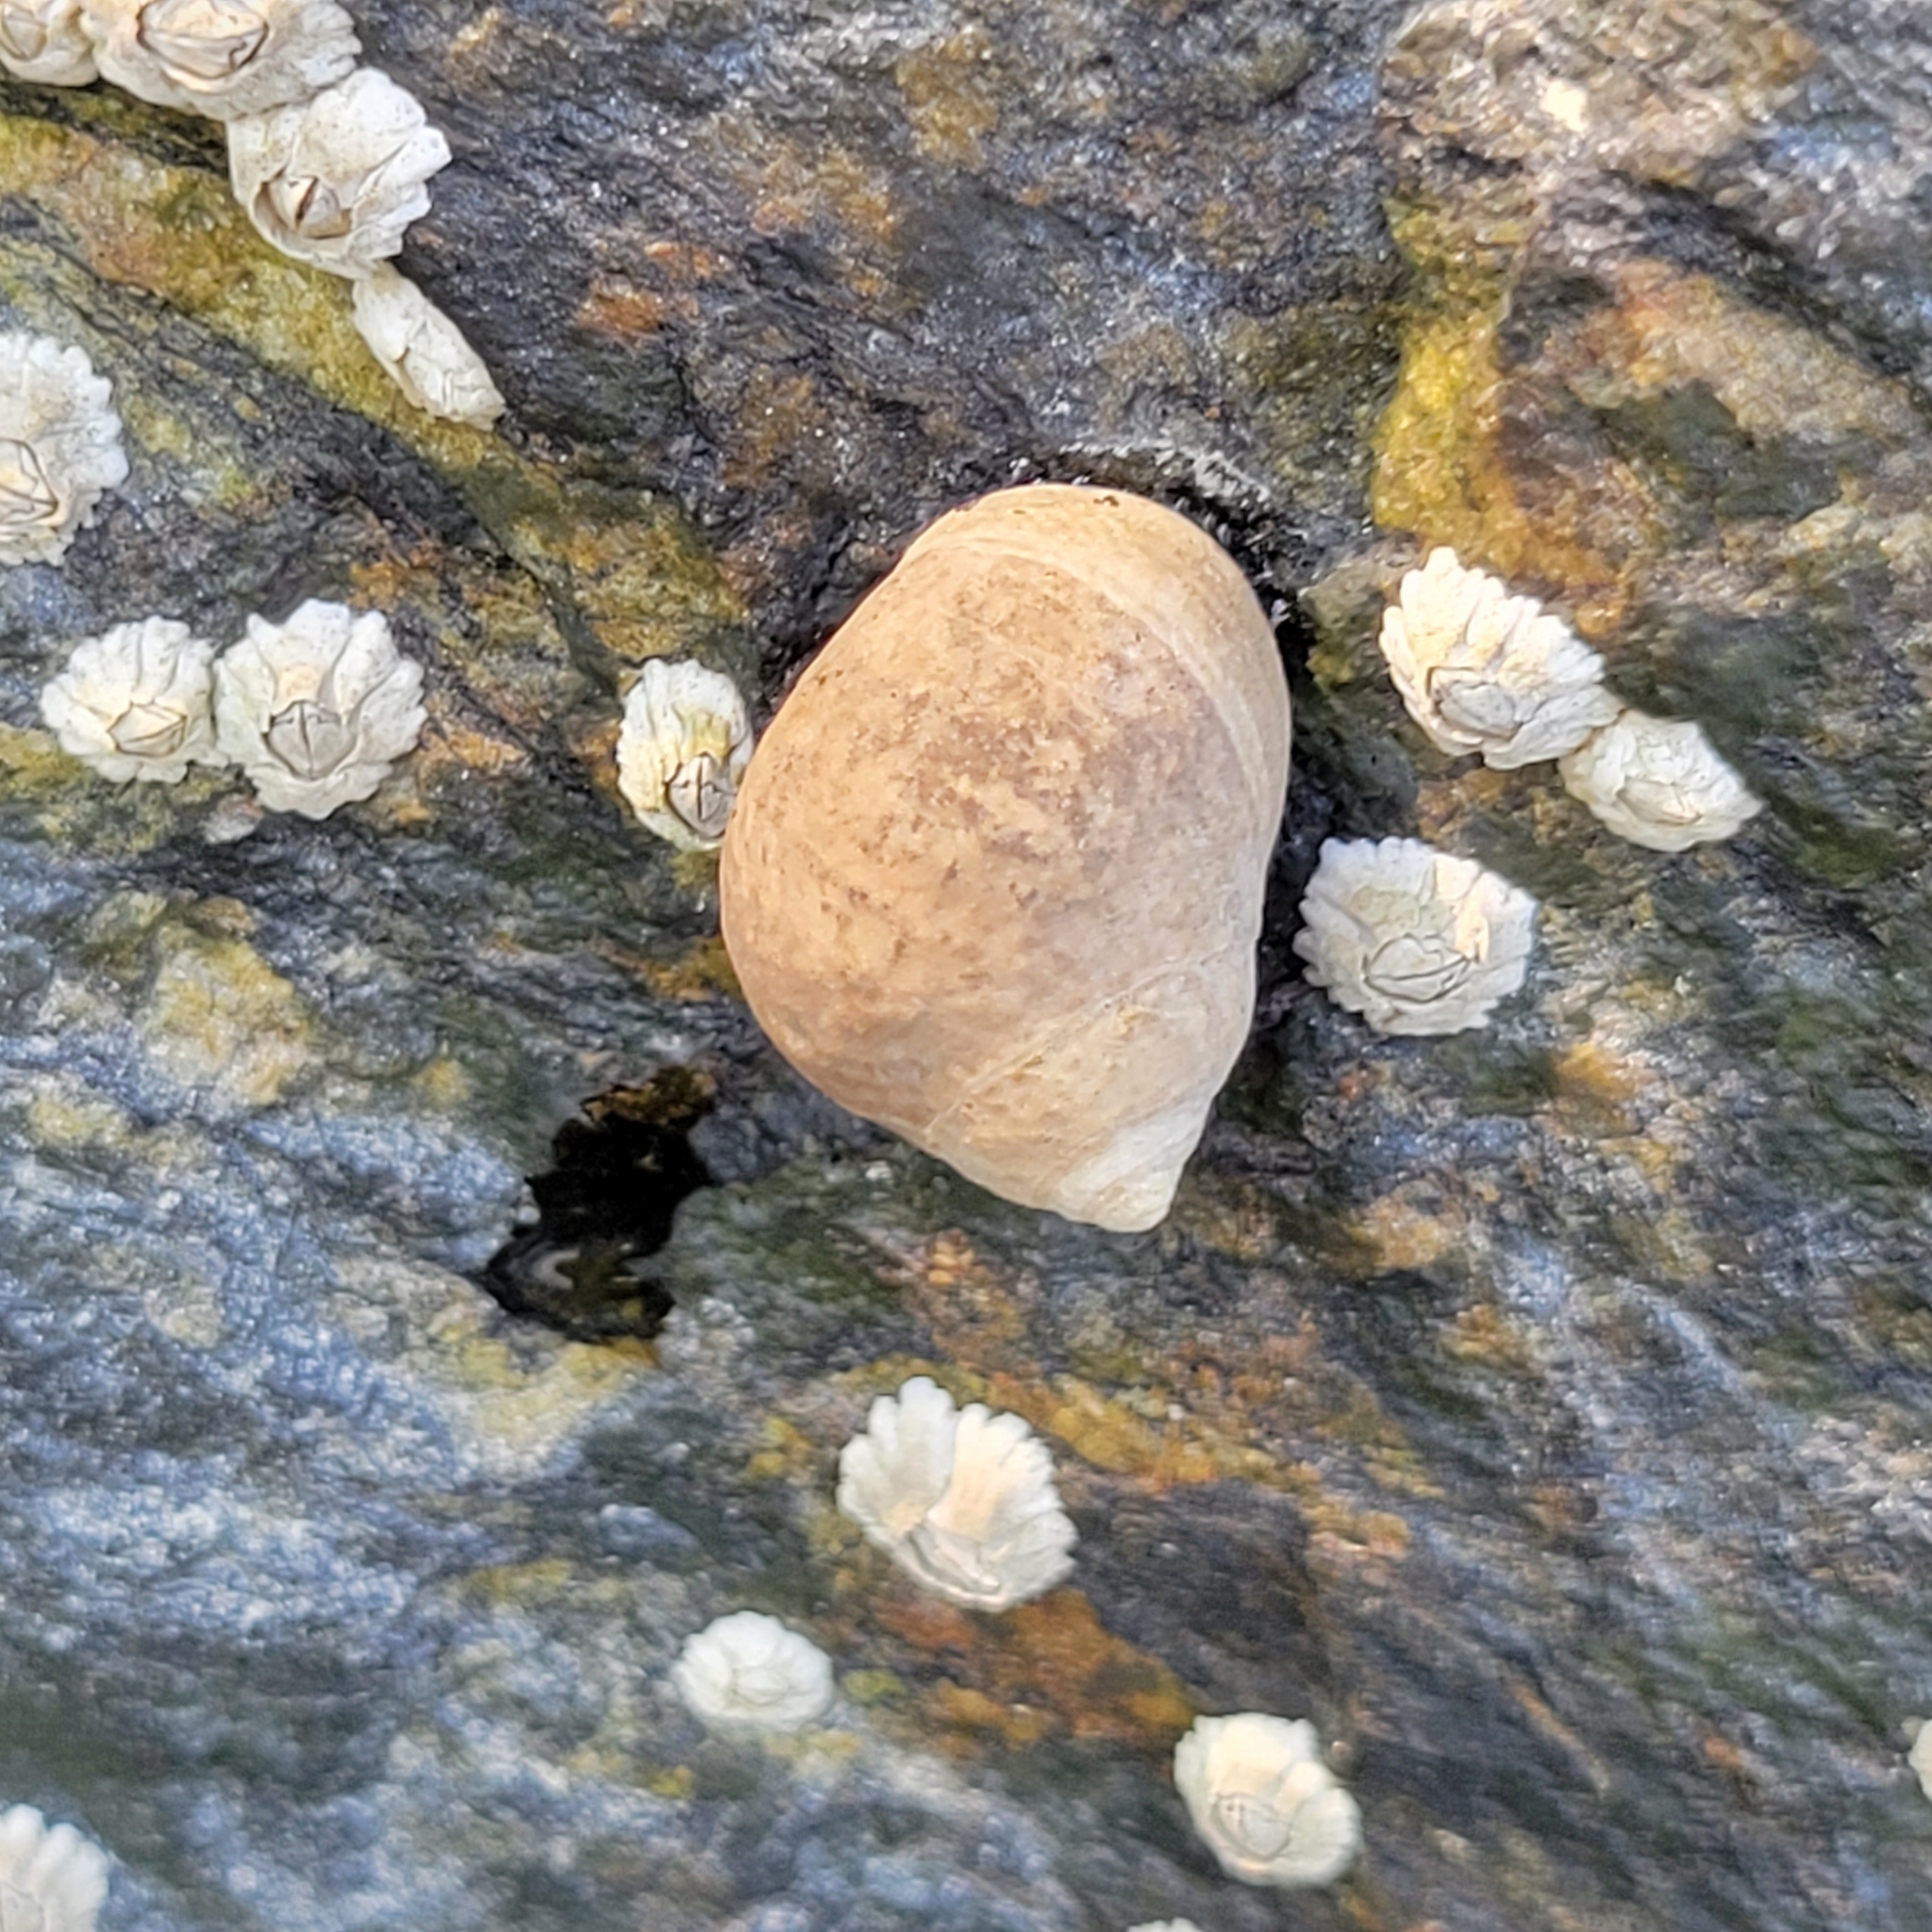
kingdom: Animalia
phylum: Mollusca
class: Gastropoda
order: Littorinimorpha
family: Littorinidae
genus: Littorina
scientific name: Littorina littorea
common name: Common periwinkle
